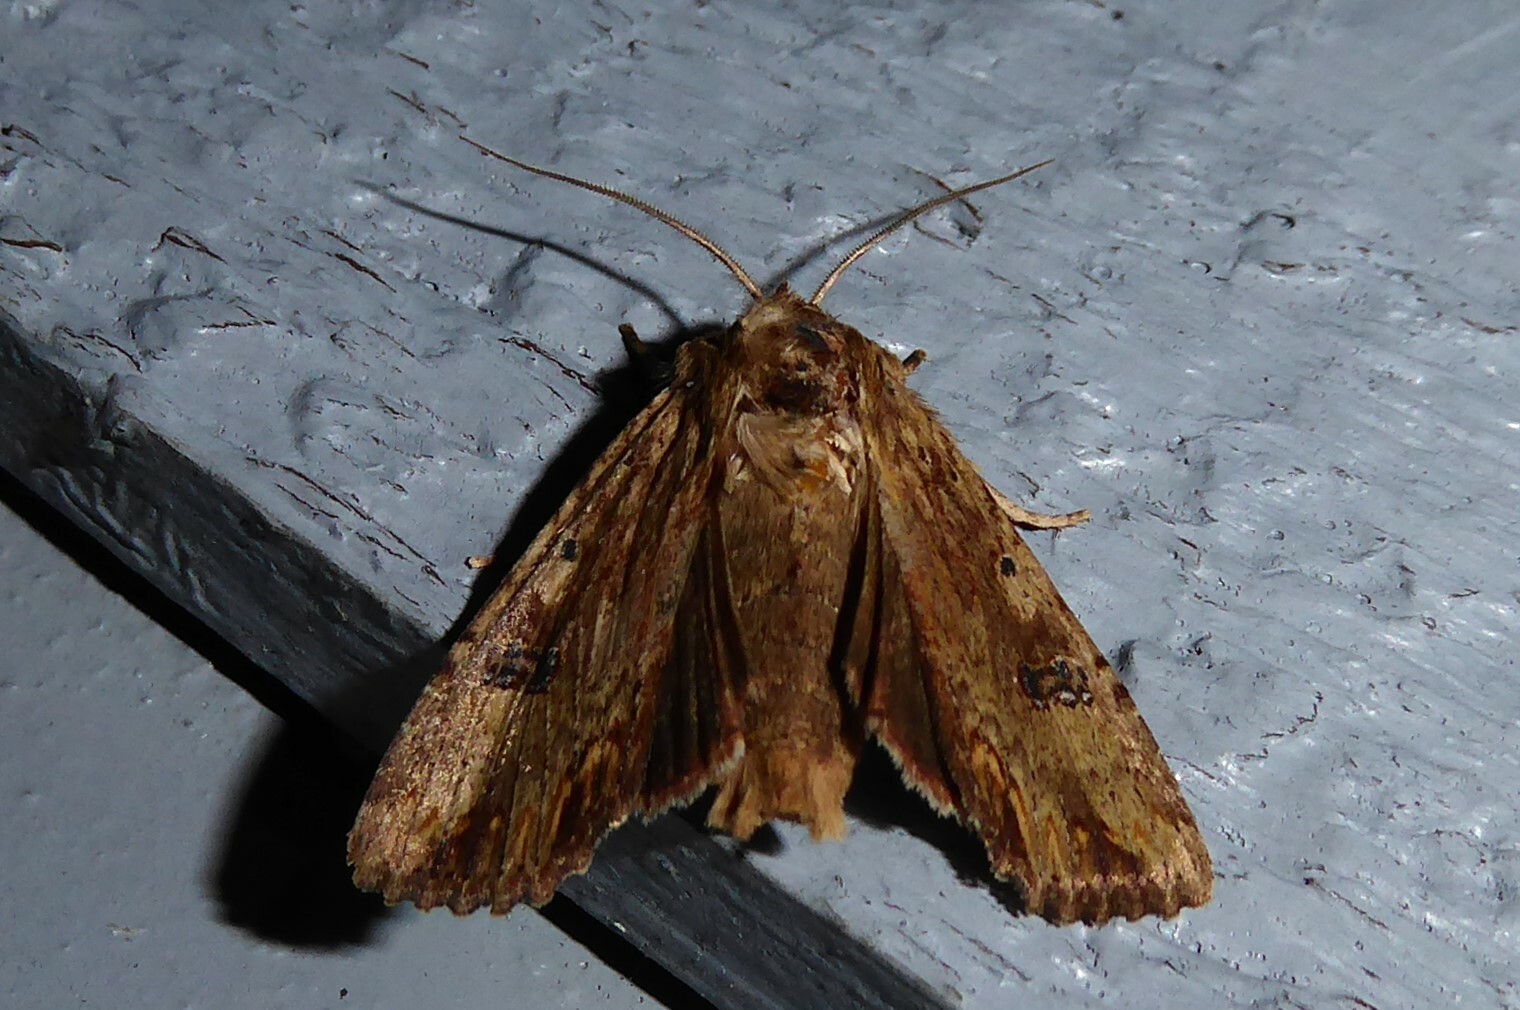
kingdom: Animalia
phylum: Arthropoda
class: Insecta
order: Lepidoptera
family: Noctuidae
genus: Ichneutica
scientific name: Ichneutica
